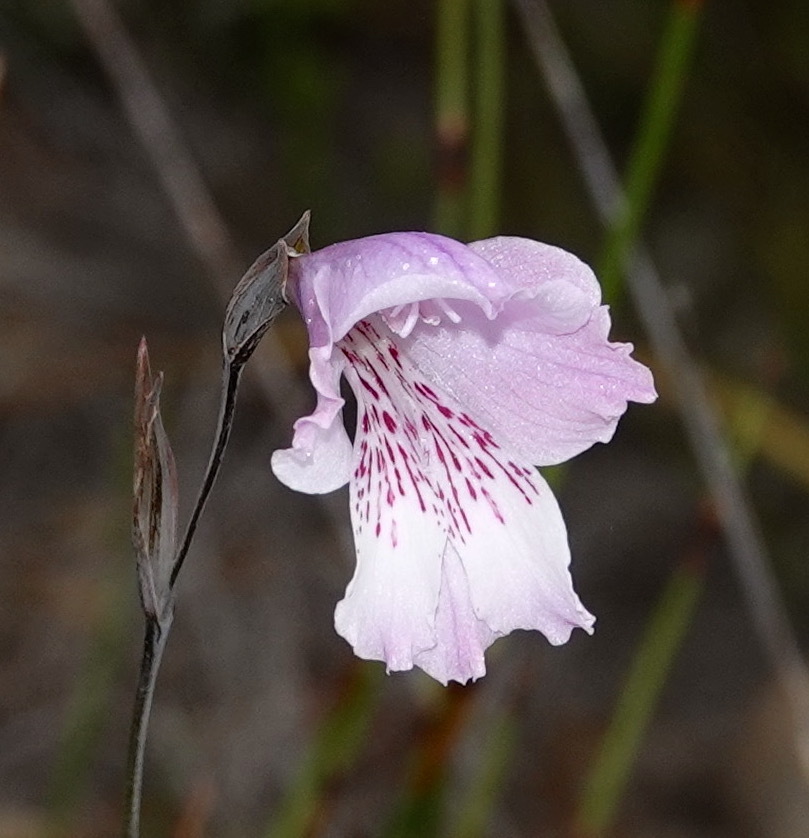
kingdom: Plantae
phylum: Tracheophyta
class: Liliopsida
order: Asparagales
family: Iridaceae
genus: Gladiolus
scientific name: Gladiolus hirsutus
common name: Small pink afrikaner
